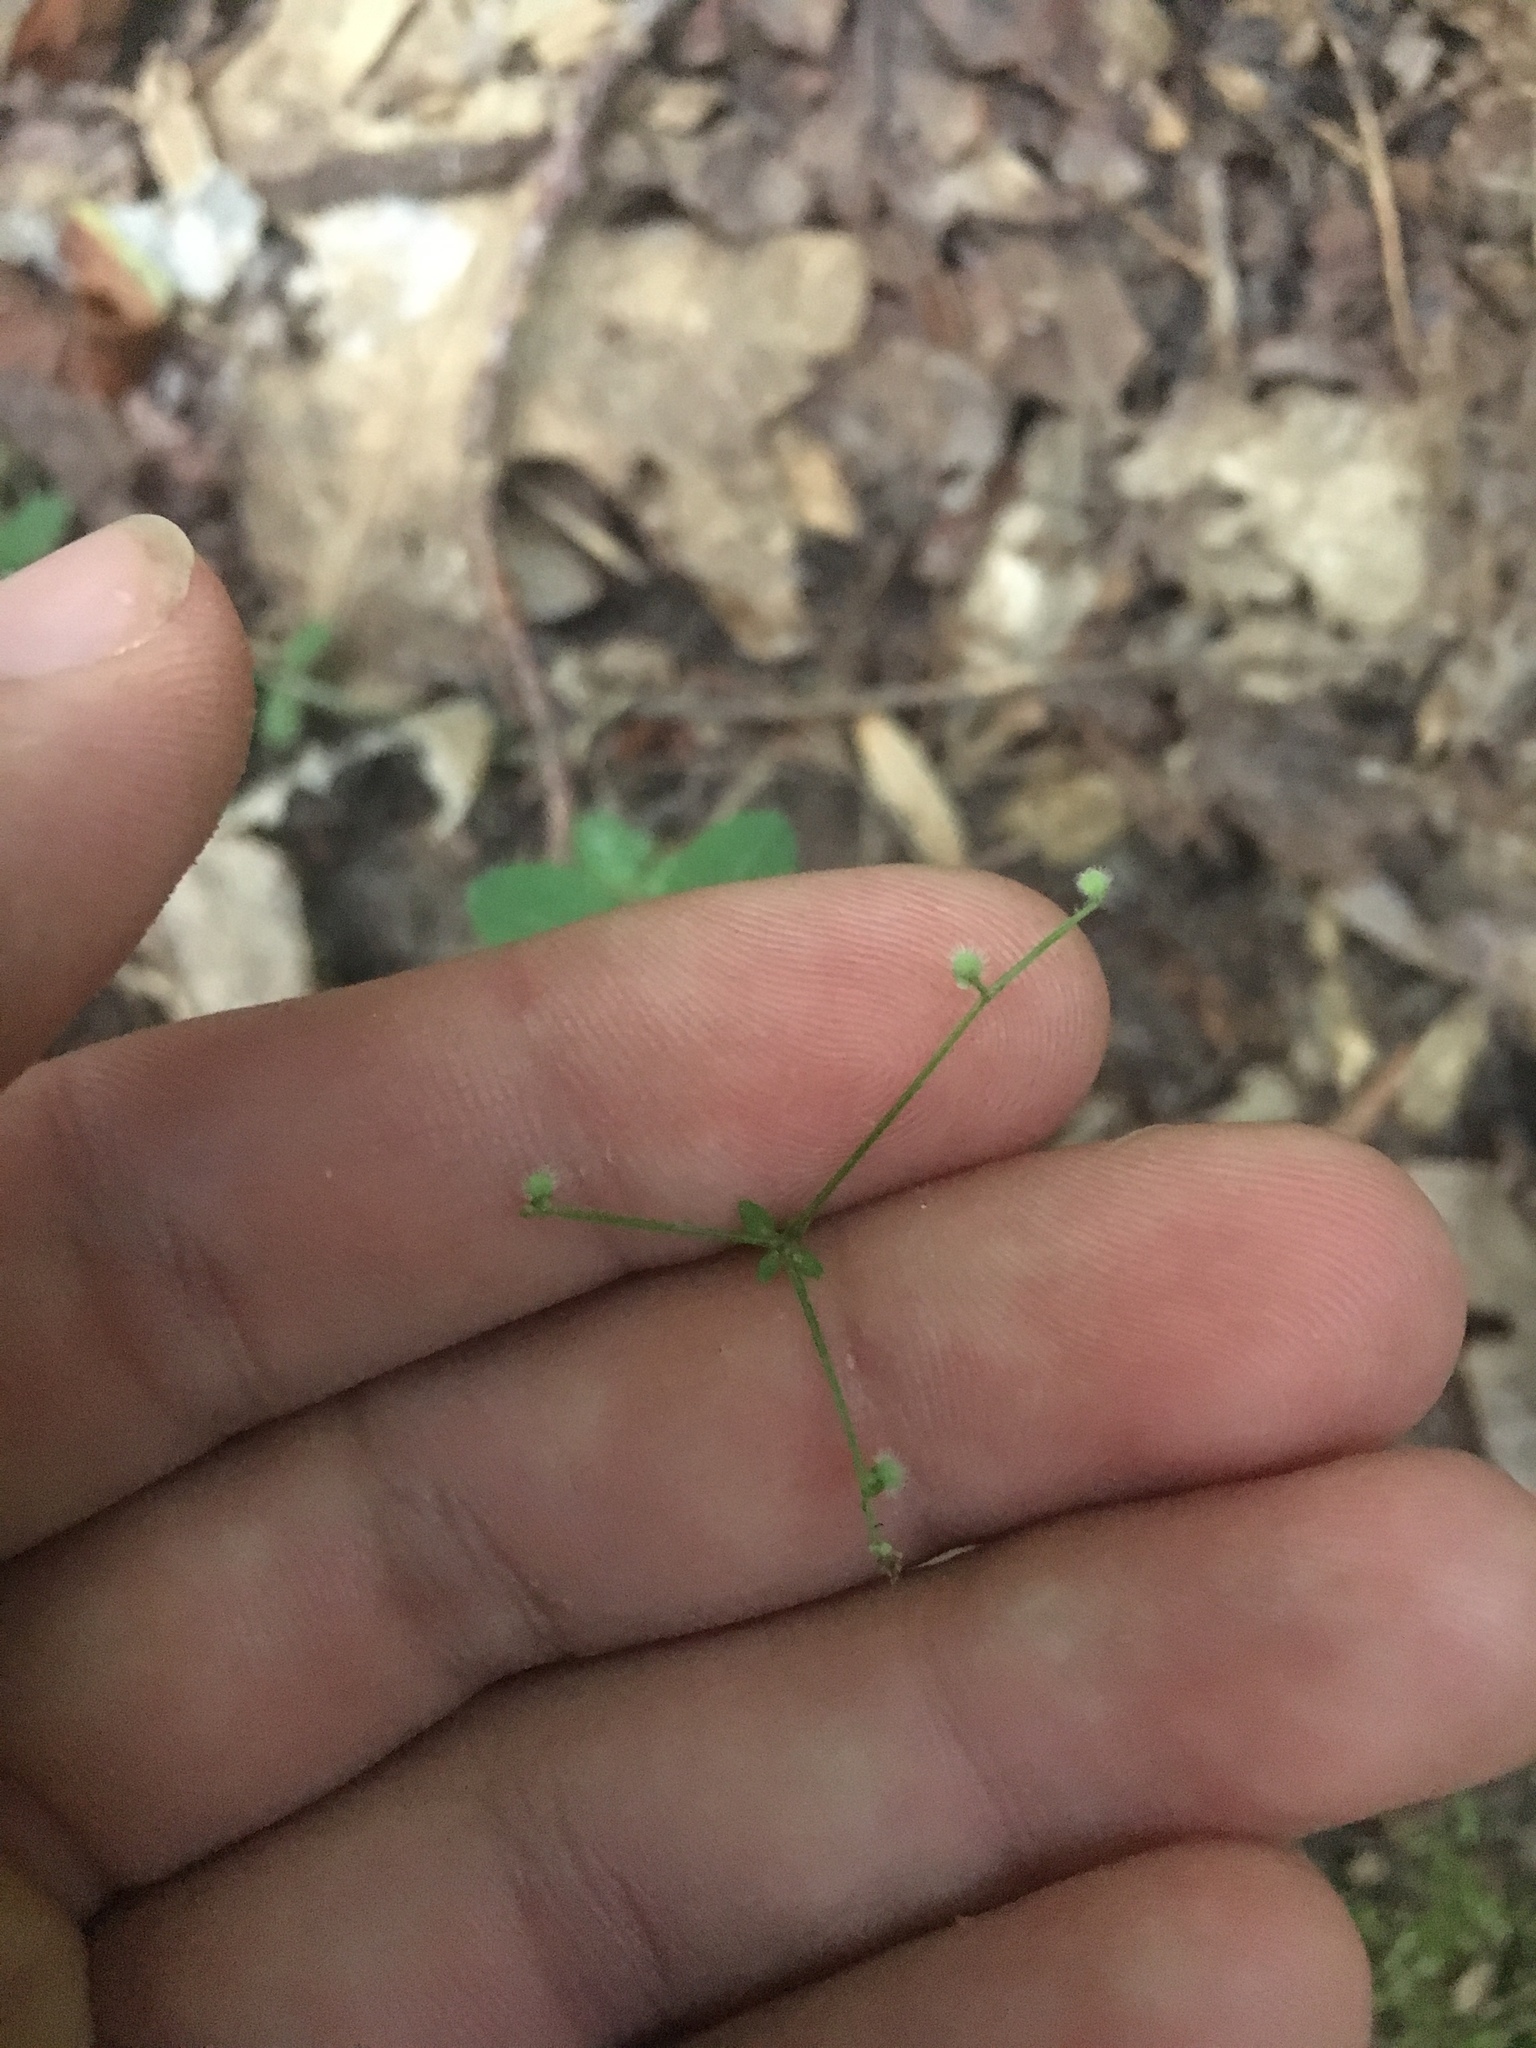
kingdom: Plantae
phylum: Tracheophyta
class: Magnoliopsida
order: Gentianales
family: Rubiaceae
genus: Galium
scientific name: Galium circaezans
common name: Forest bedstraw
